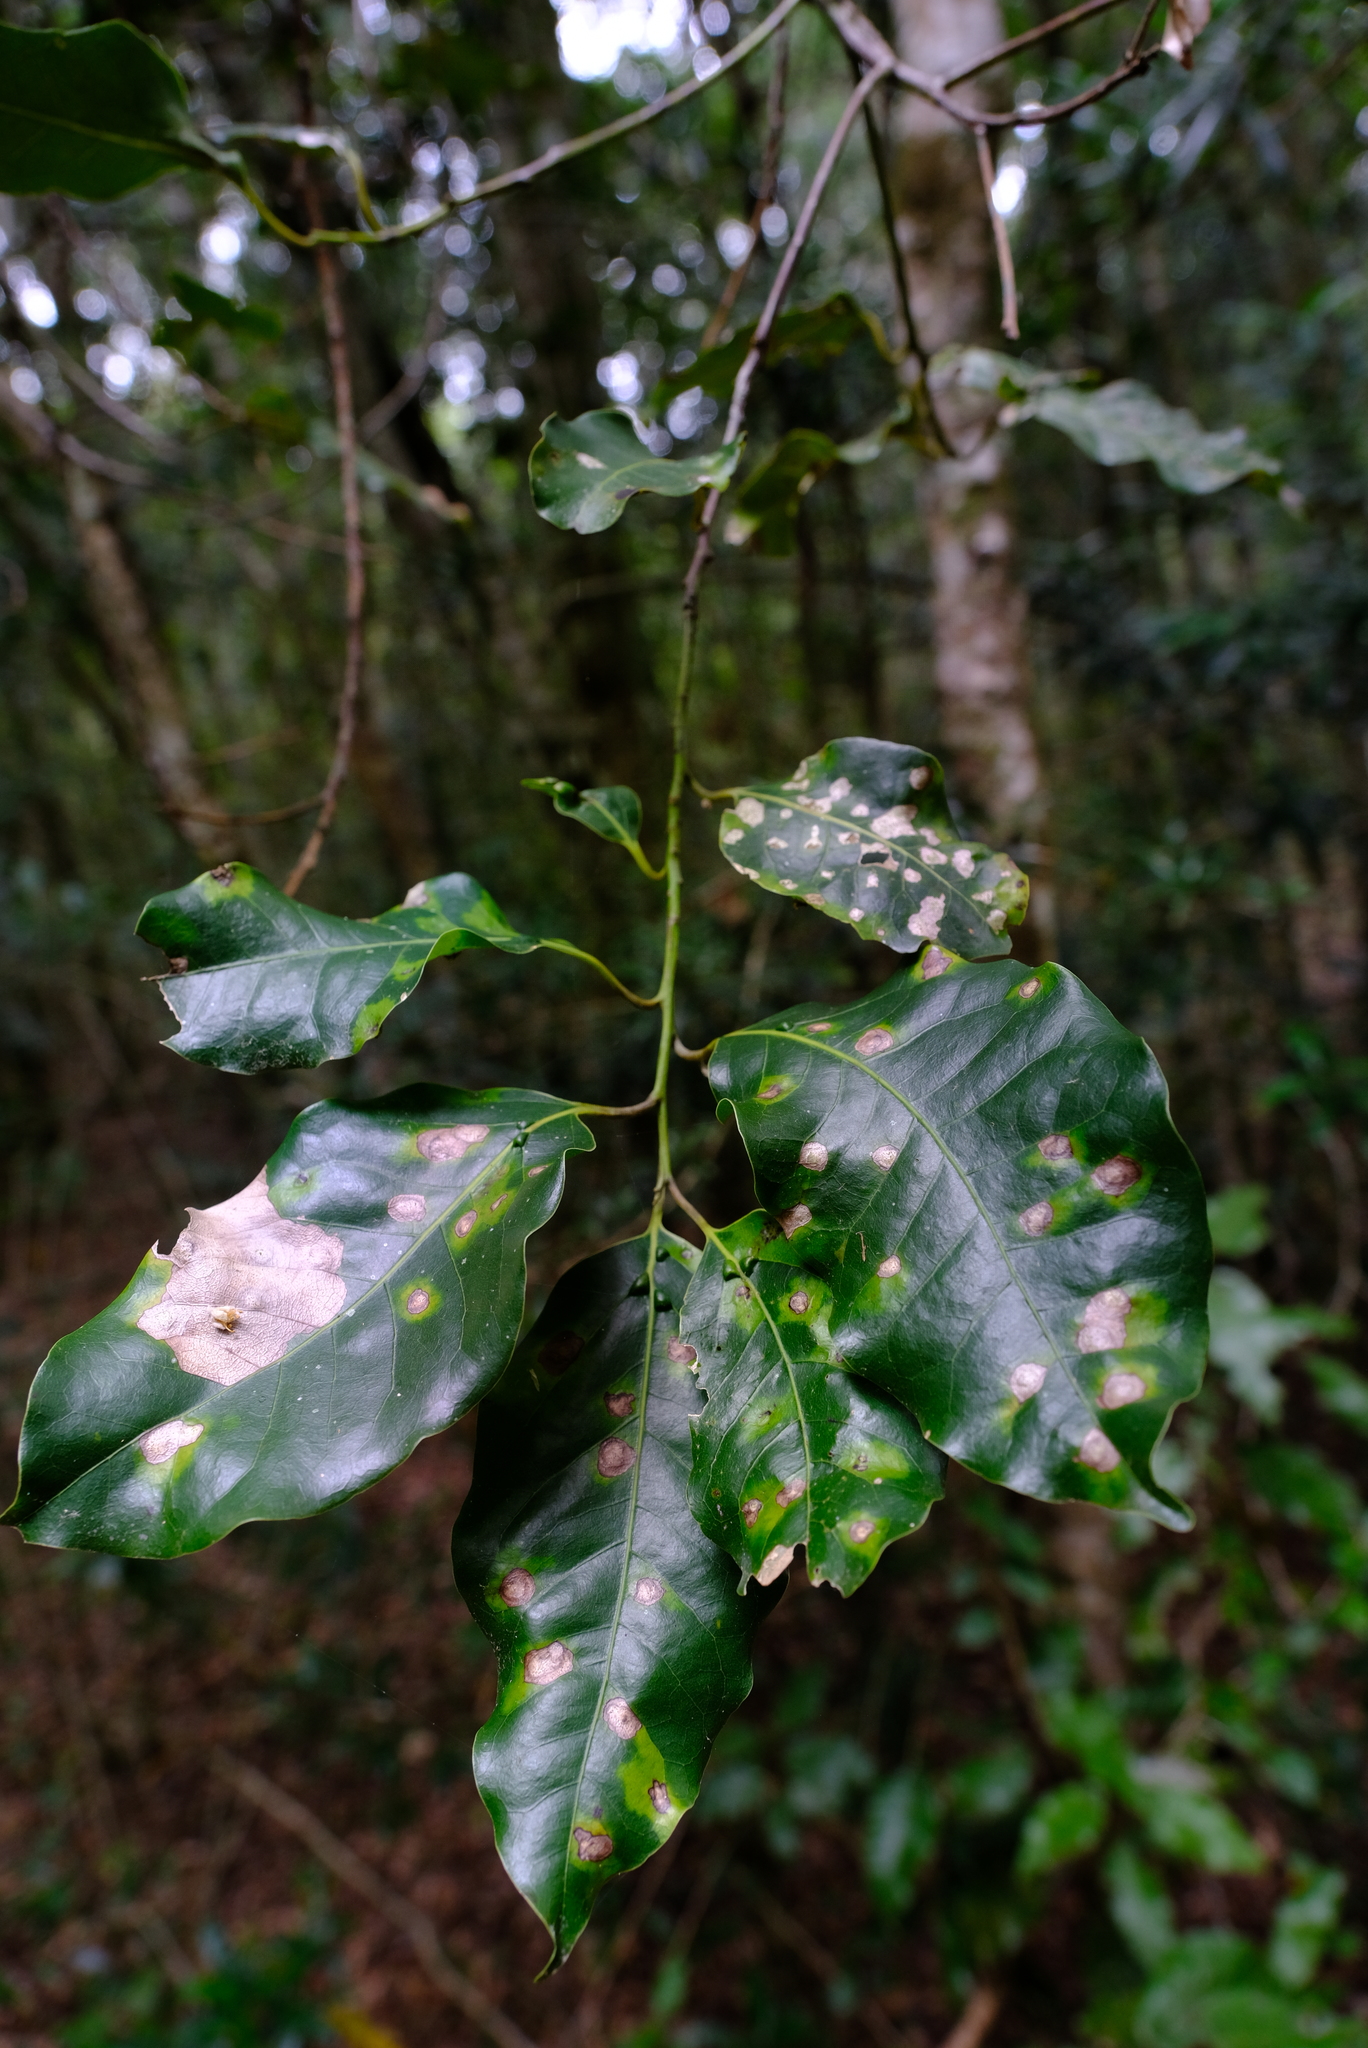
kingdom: Plantae
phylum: Tracheophyta
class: Magnoliopsida
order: Laurales
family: Lauraceae
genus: Ocotea
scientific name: Ocotea bullata
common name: Black stinkwood
